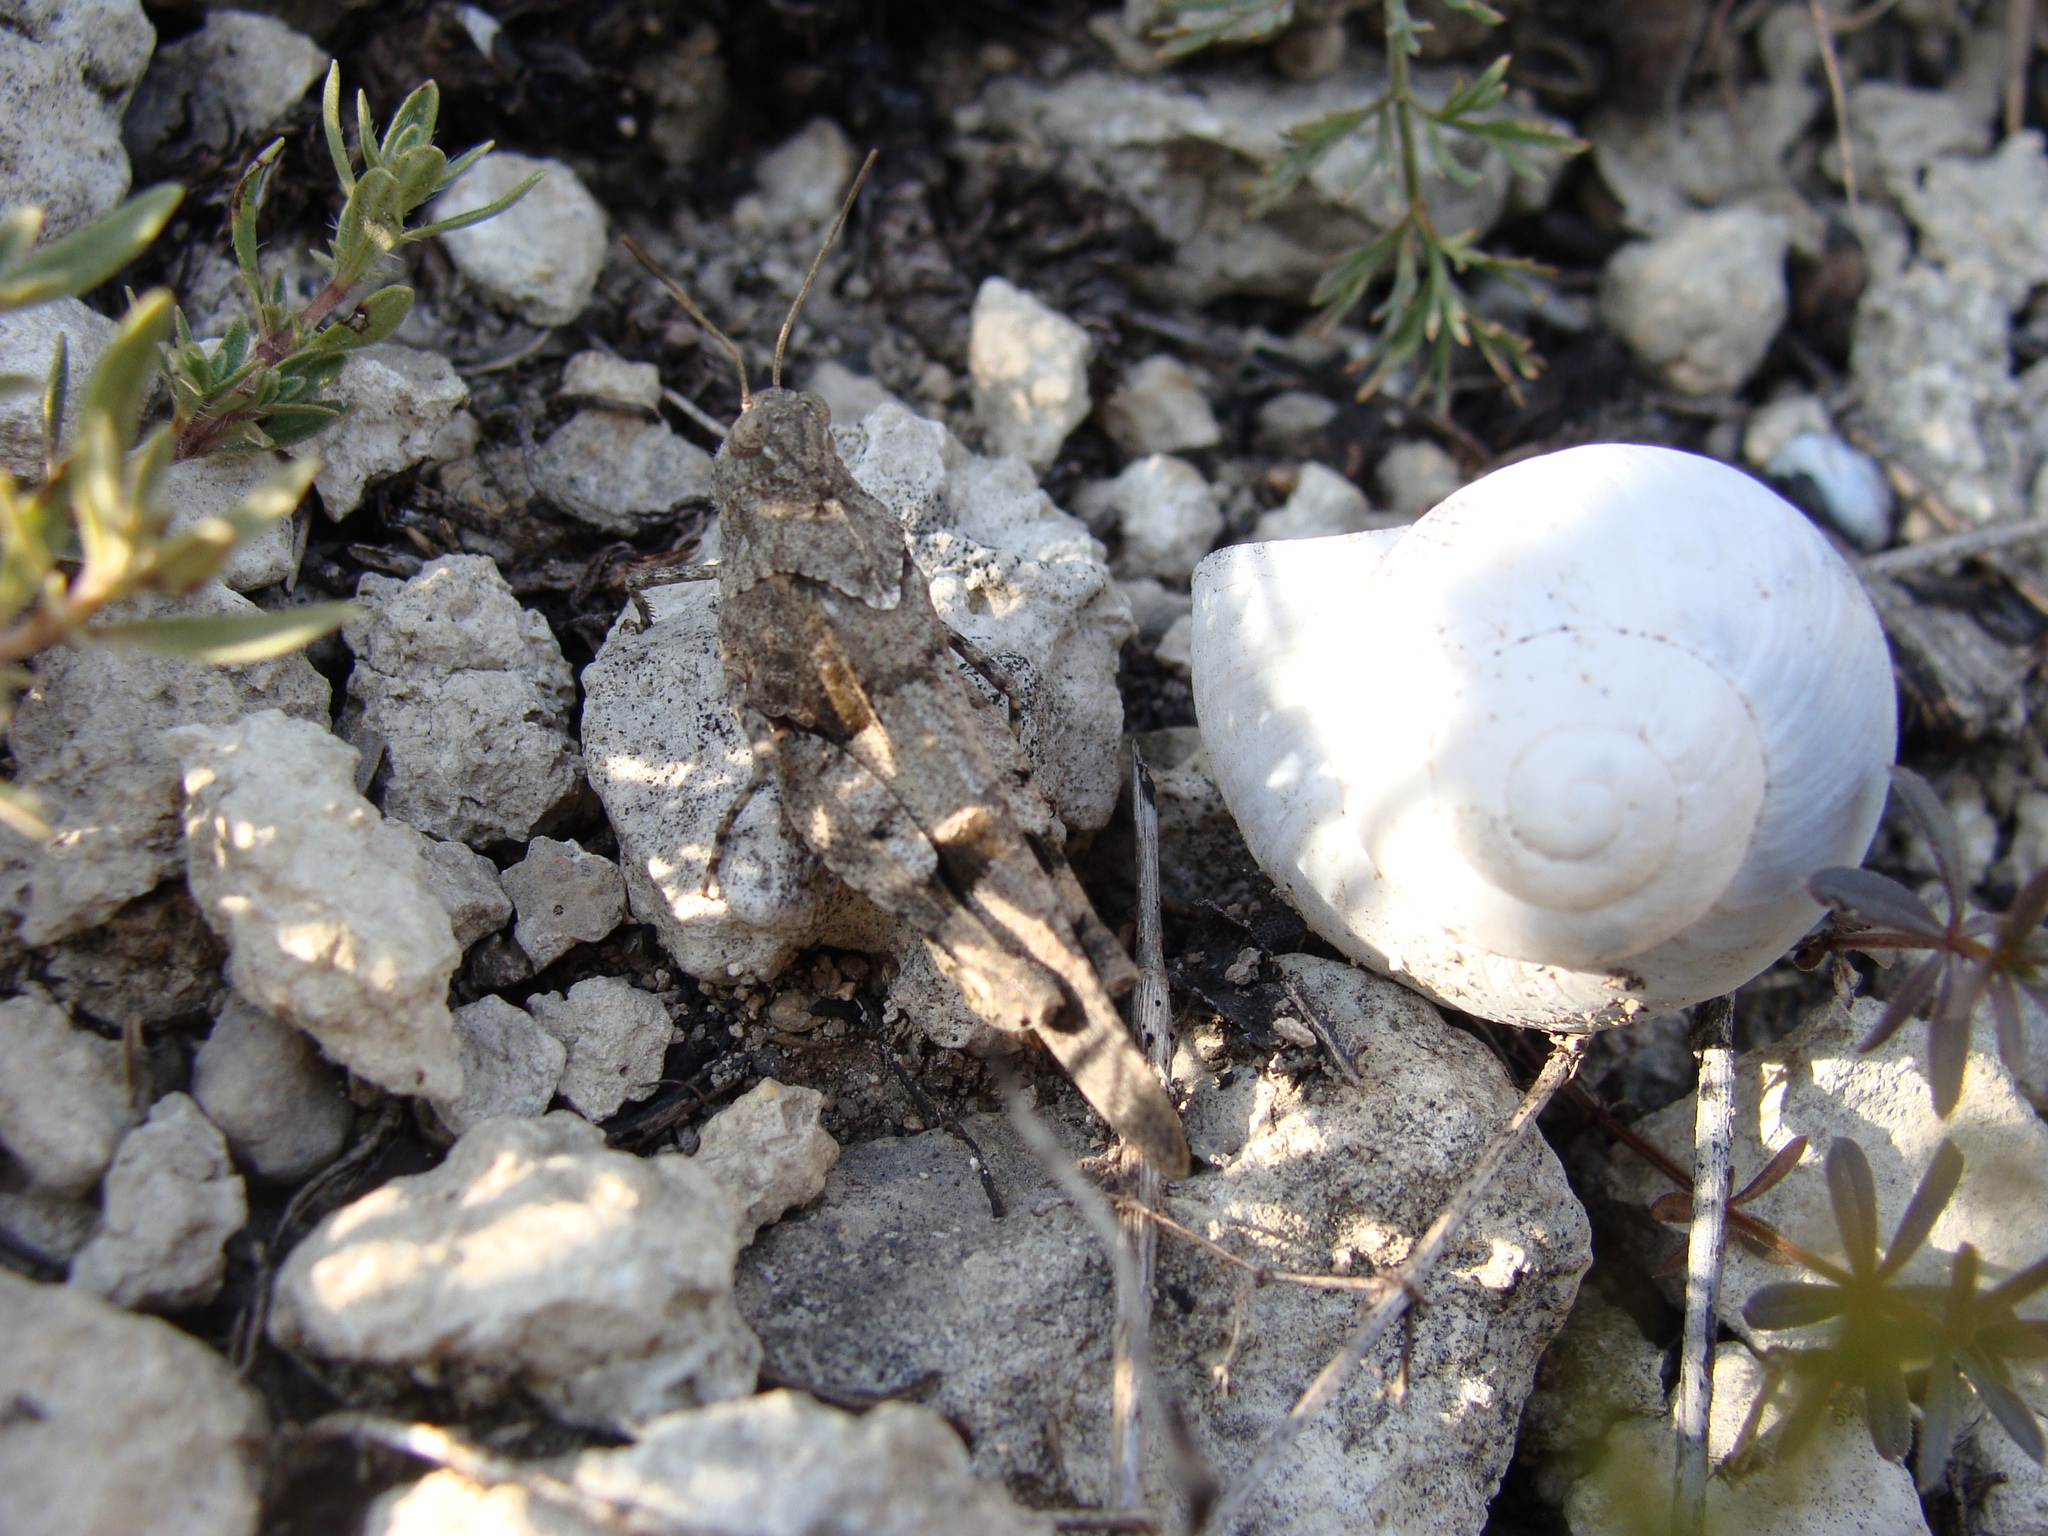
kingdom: Animalia
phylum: Arthropoda
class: Insecta
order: Orthoptera
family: Acrididae
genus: Oedipoda
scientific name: Oedipoda caerulescens
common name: Blue-winged grasshopper
